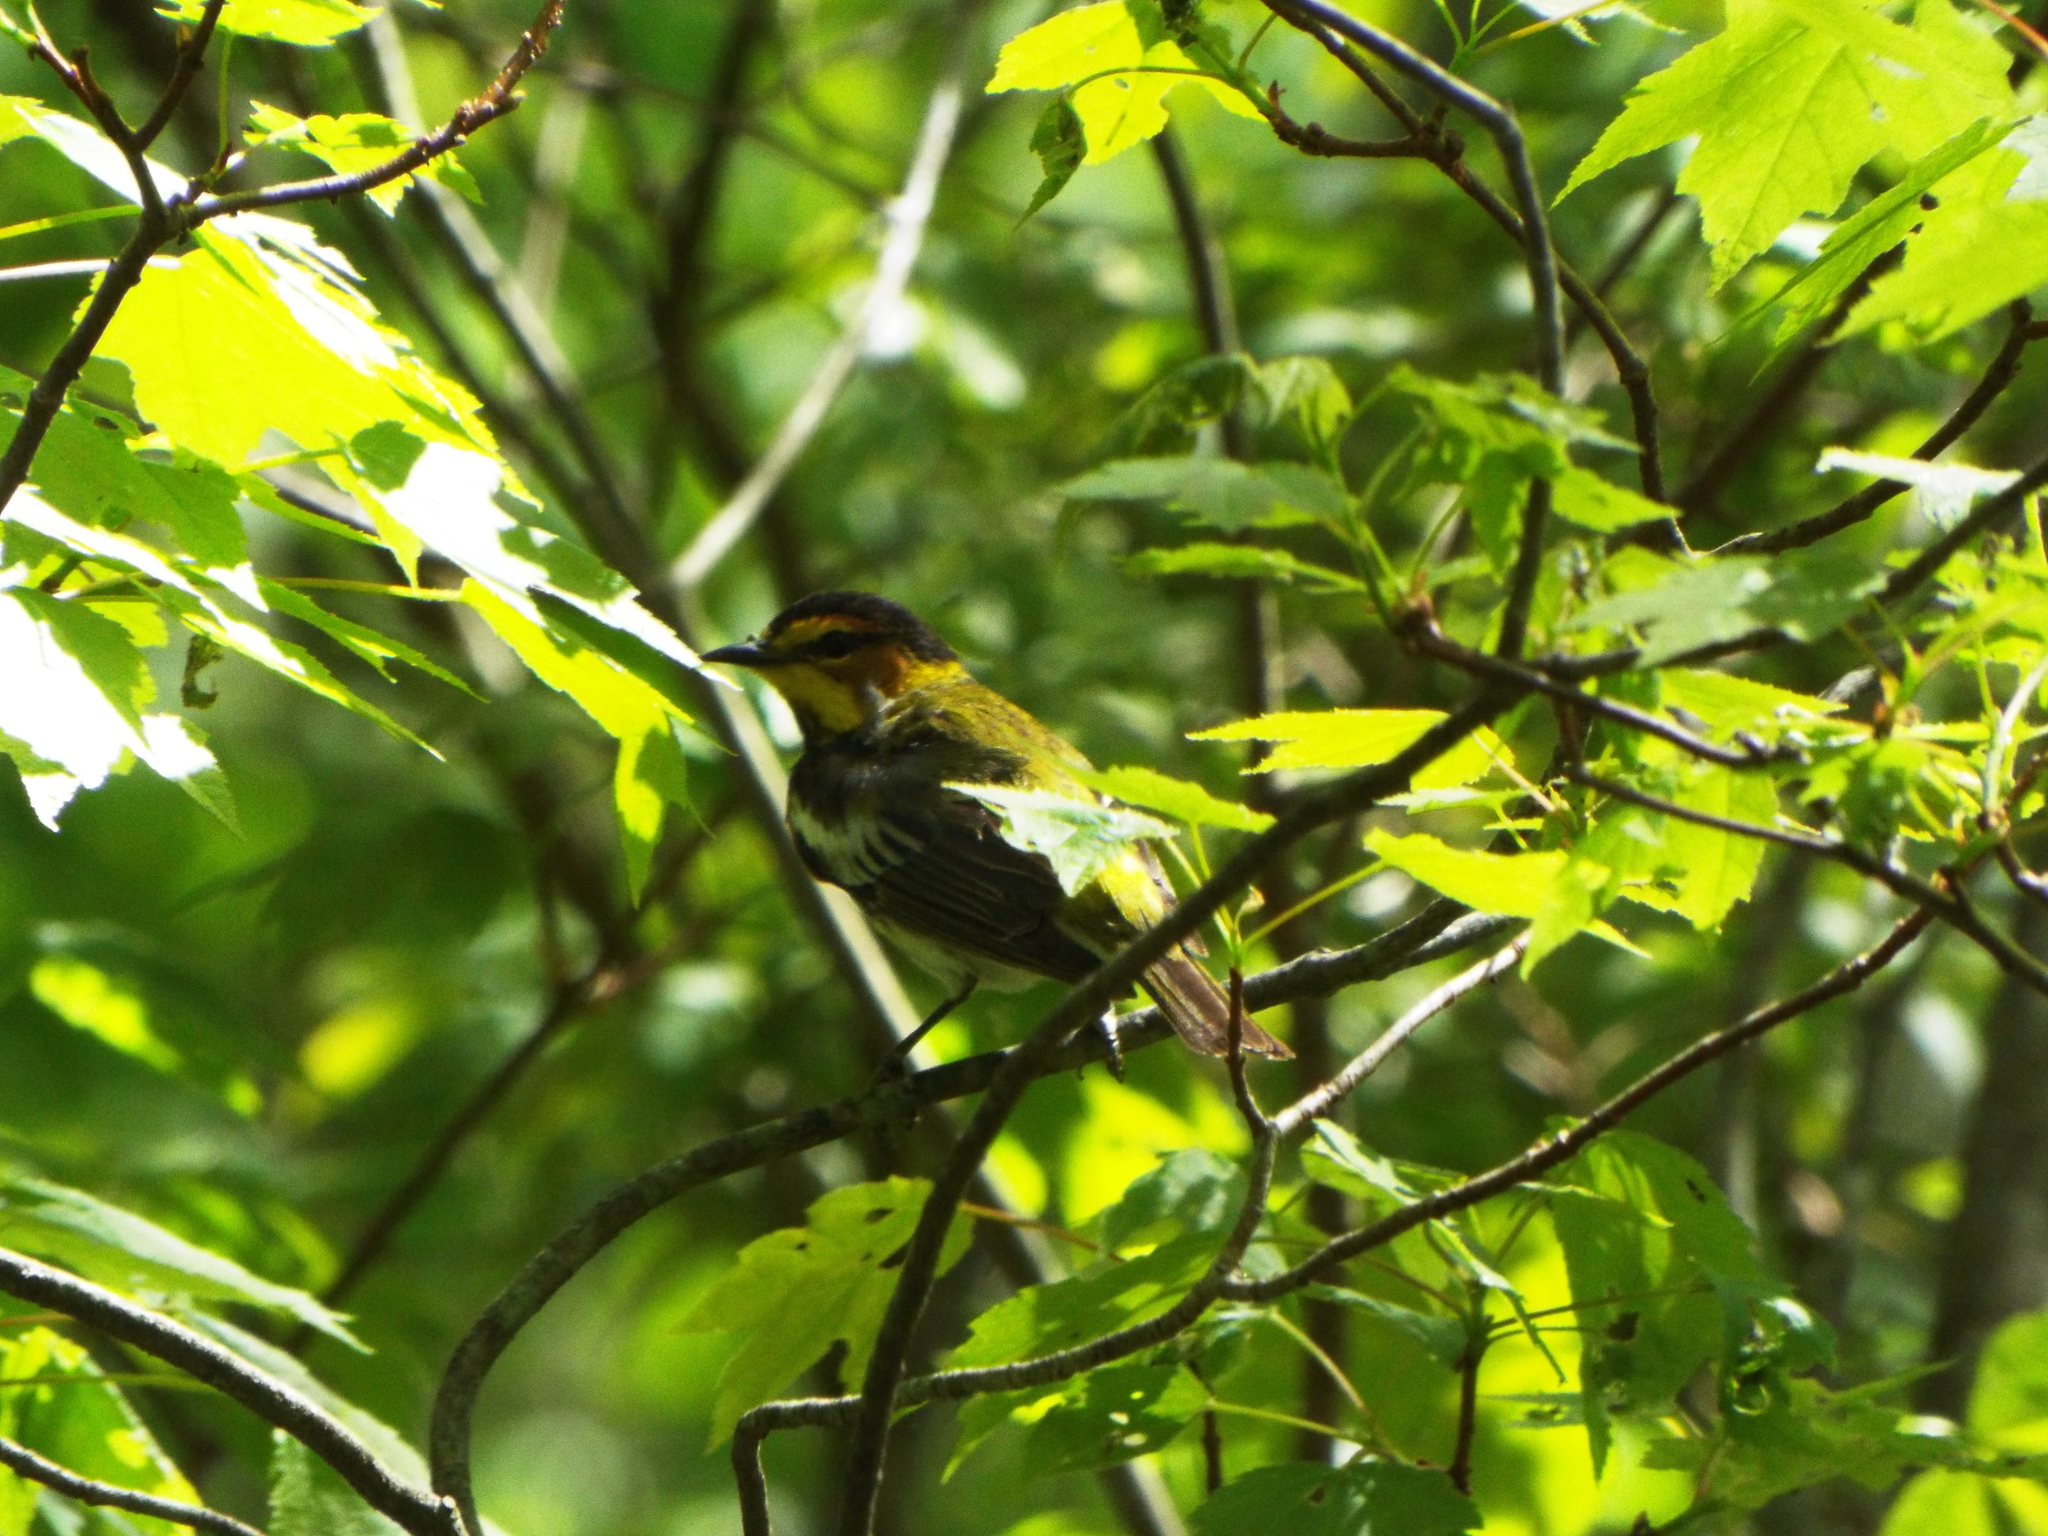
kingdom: Animalia
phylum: Chordata
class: Aves
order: Passeriformes
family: Parulidae
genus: Setophaga
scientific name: Setophaga tigrina
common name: Cape may warbler
